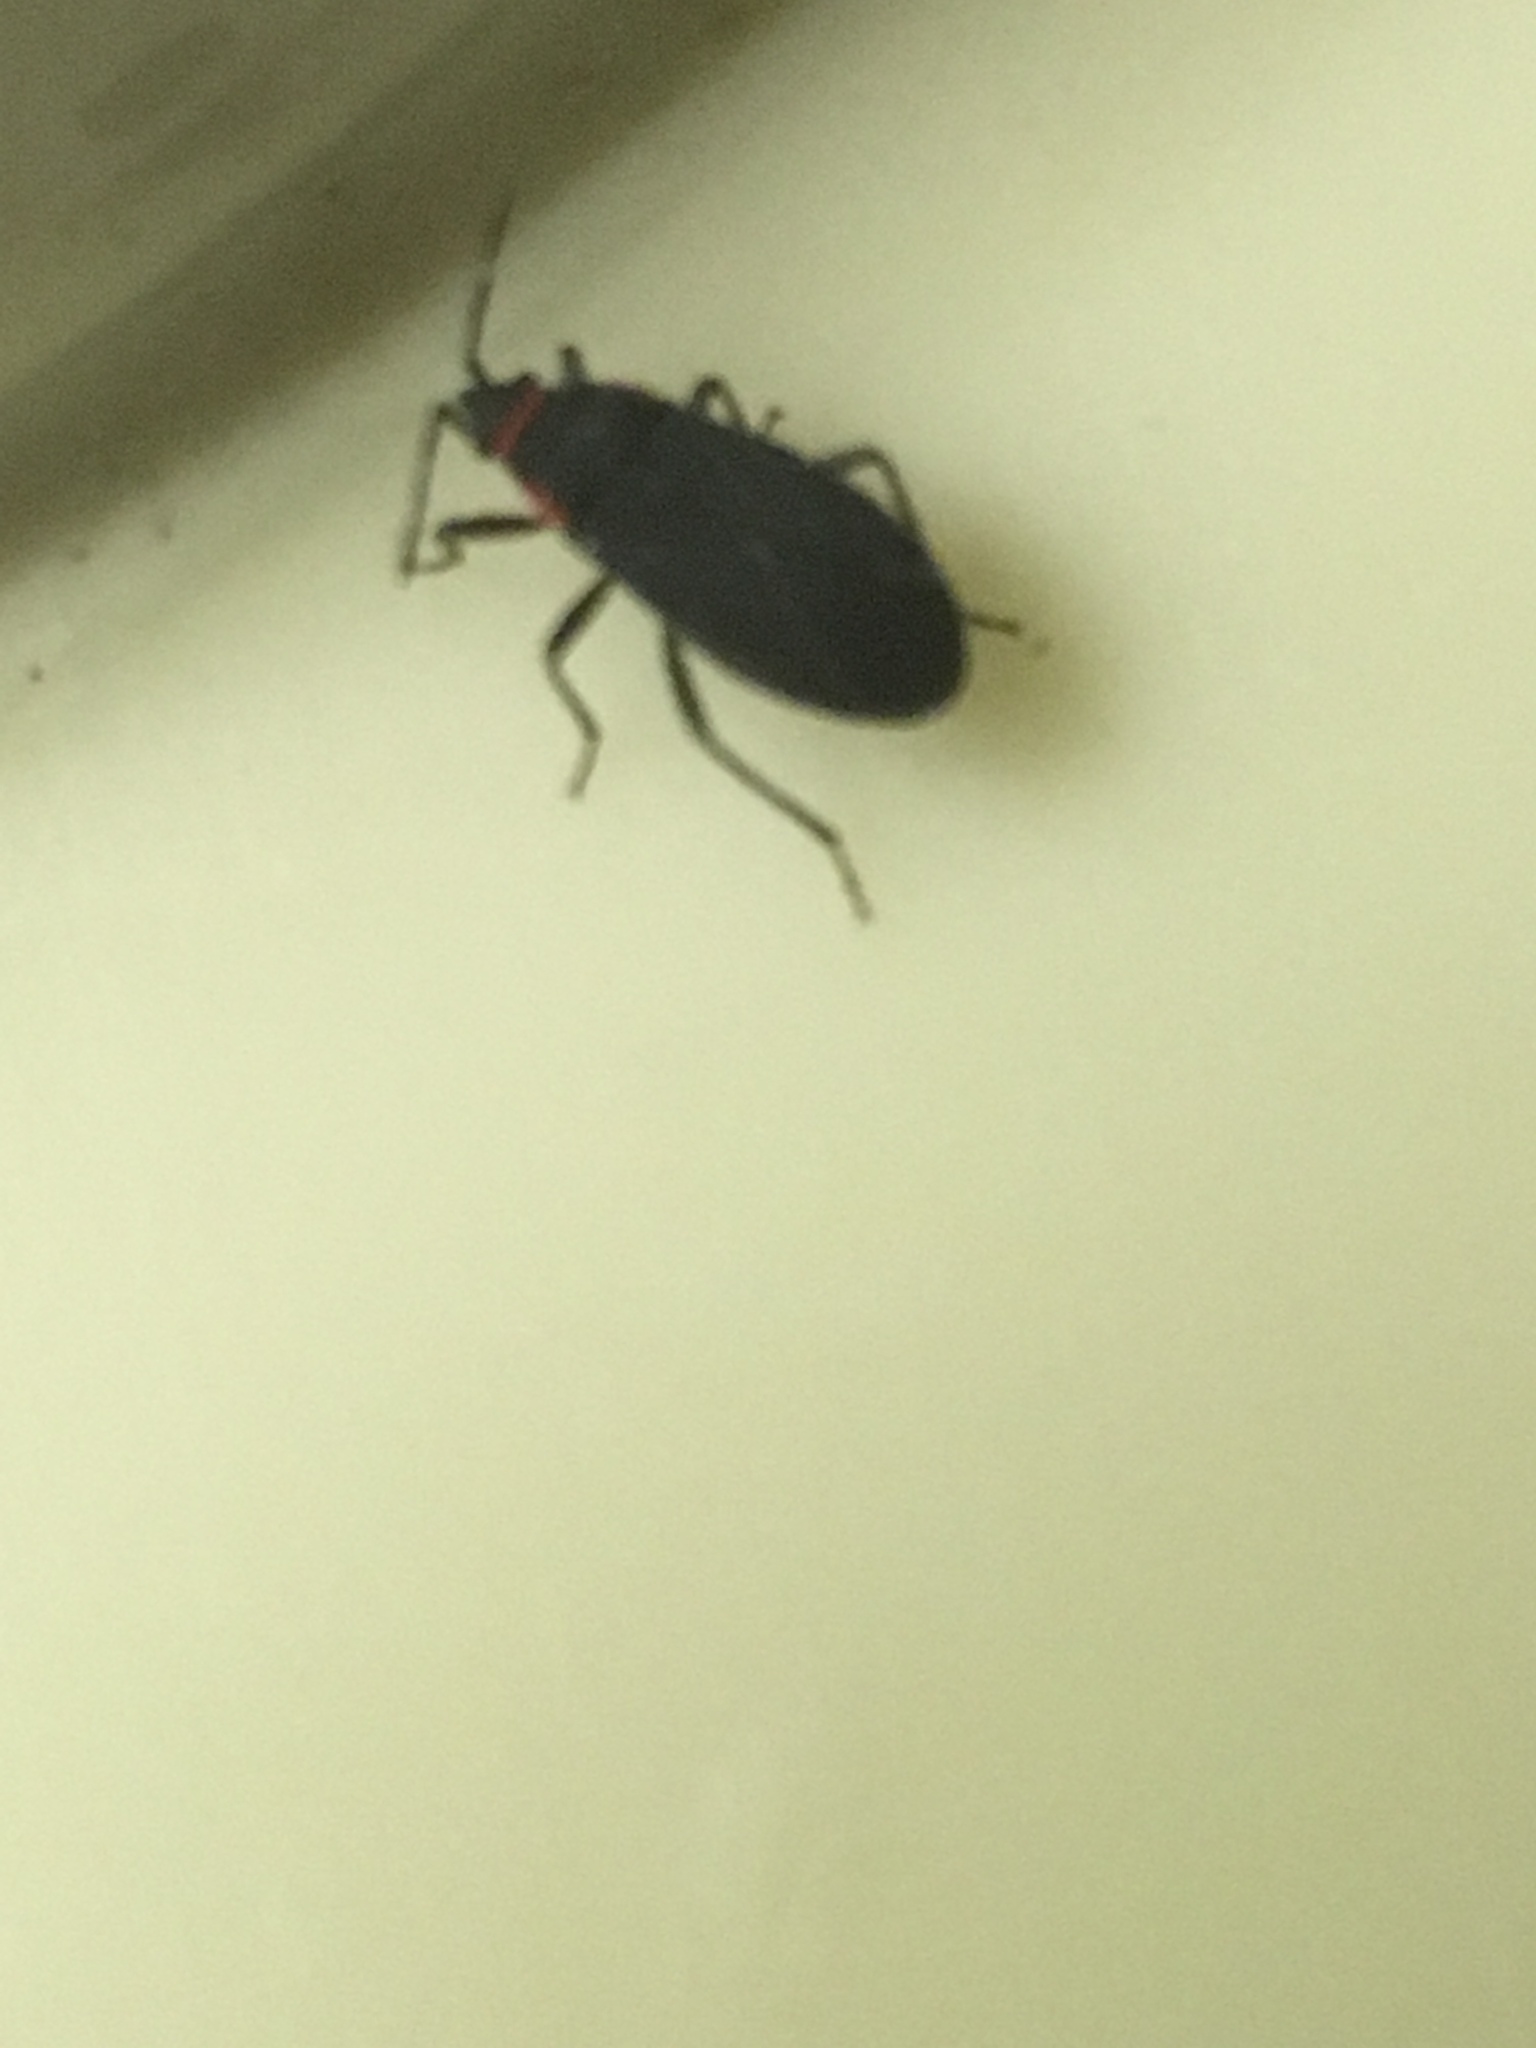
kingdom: Animalia
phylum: Arthropoda
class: Insecta
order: Hemiptera
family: Lygaeidae
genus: Melacoryphus
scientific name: Melacoryphus rubicollis
